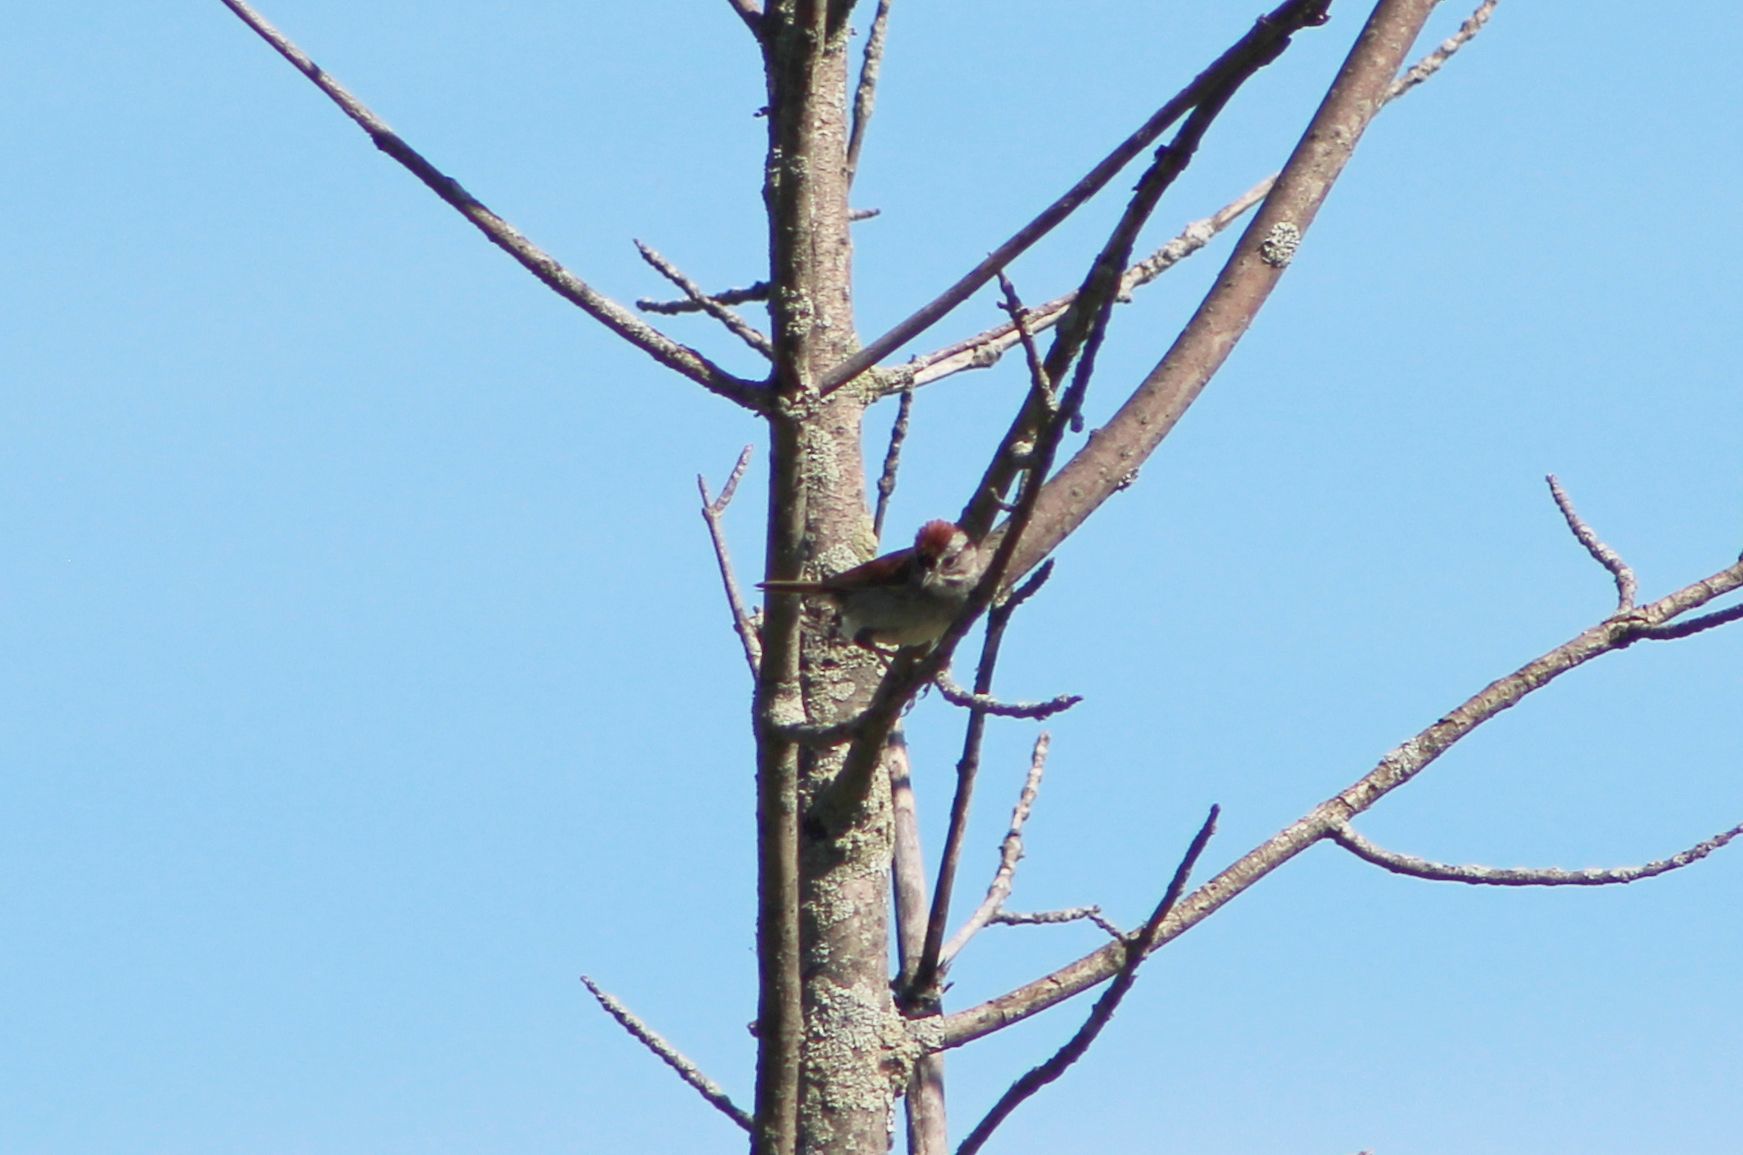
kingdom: Animalia
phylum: Chordata
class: Aves
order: Passeriformes
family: Passerellidae
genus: Melospiza
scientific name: Melospiza georgiana
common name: Swamp sparrow
